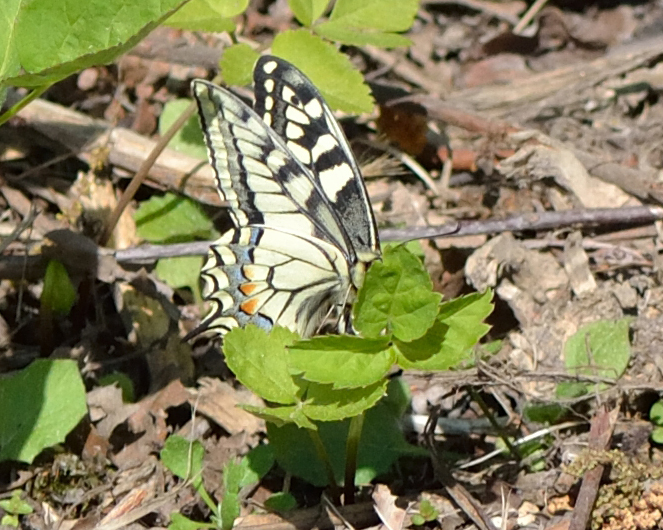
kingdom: Animalia
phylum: Arthropoda
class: Insecta
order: Lepidoptera
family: Papilionidae
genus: Papilio
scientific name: Papilio machaon
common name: Swallowtail
